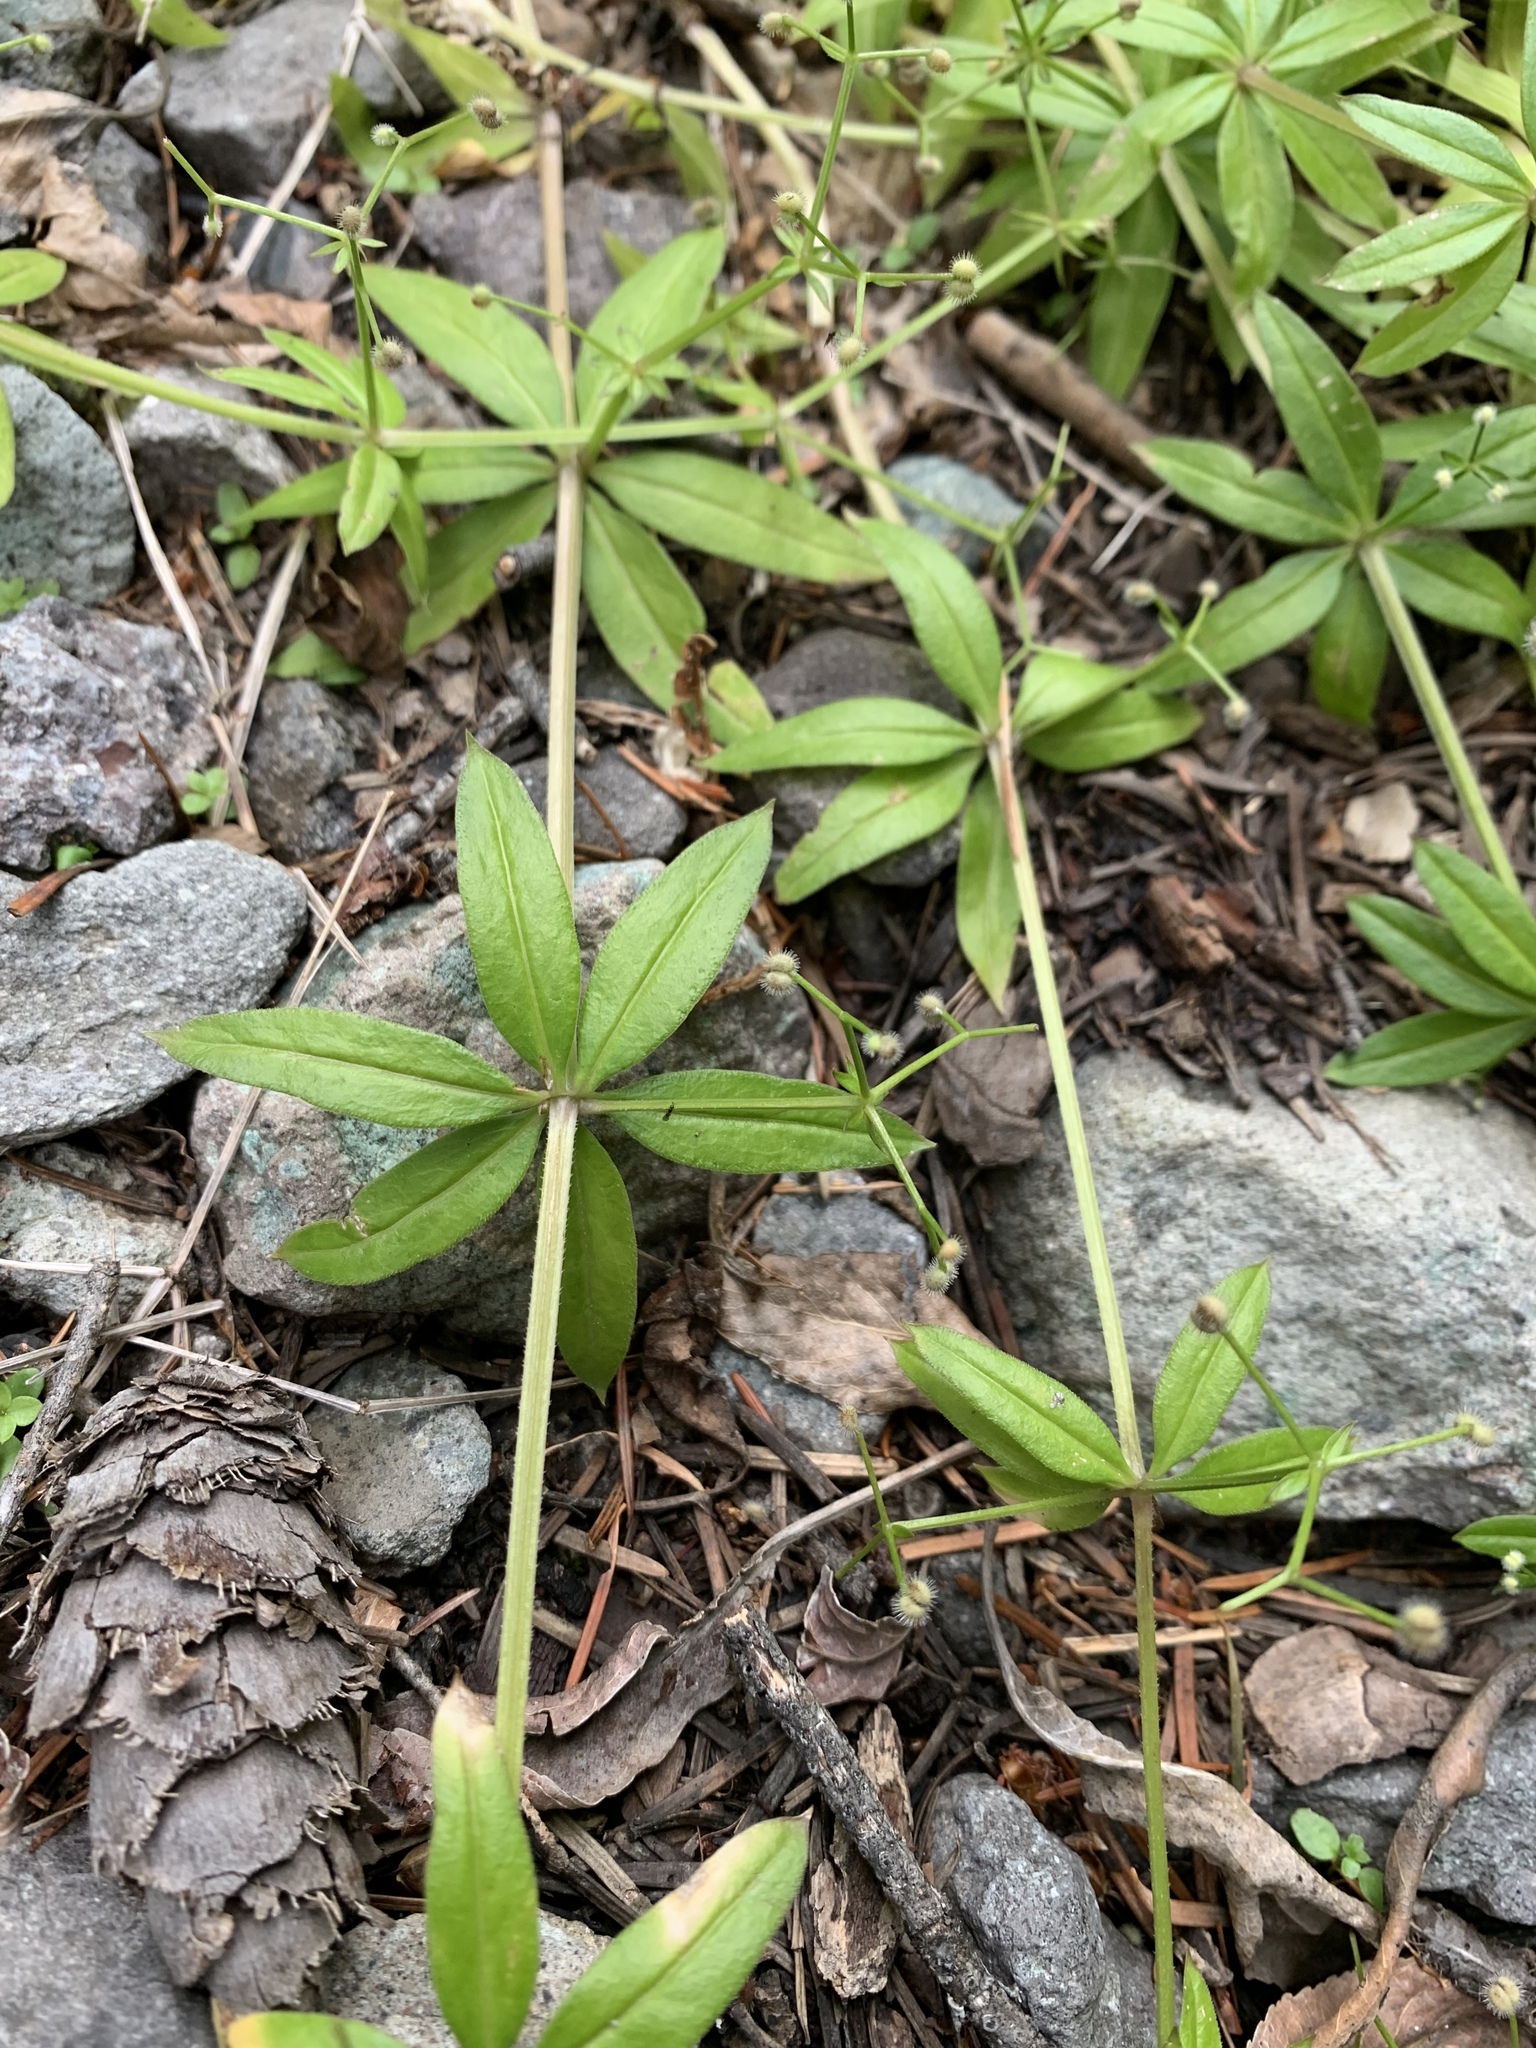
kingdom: Plantae
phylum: Tracheophyta
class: Magnoliopsida
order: Gentianales
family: Rubiaceae
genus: Galium
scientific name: Galium triflorum
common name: Fragrant bedstraw
